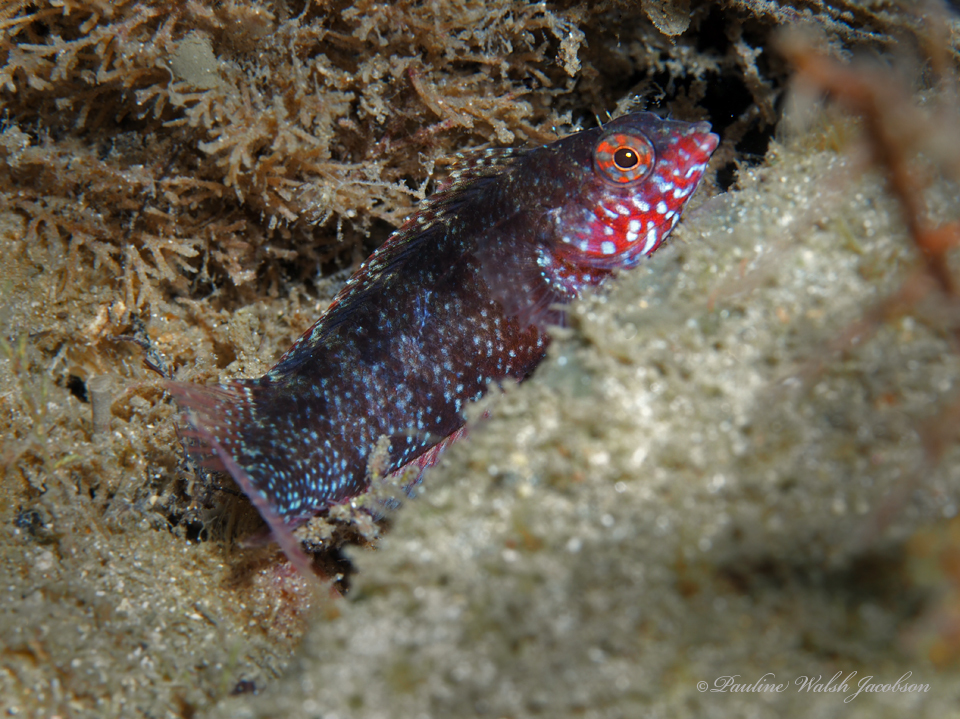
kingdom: Animalia
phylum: Chordata
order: Perciformes
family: Labrisomidae
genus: Malacoctenus
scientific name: Malacoctenus macropus
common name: Rosy blenny
